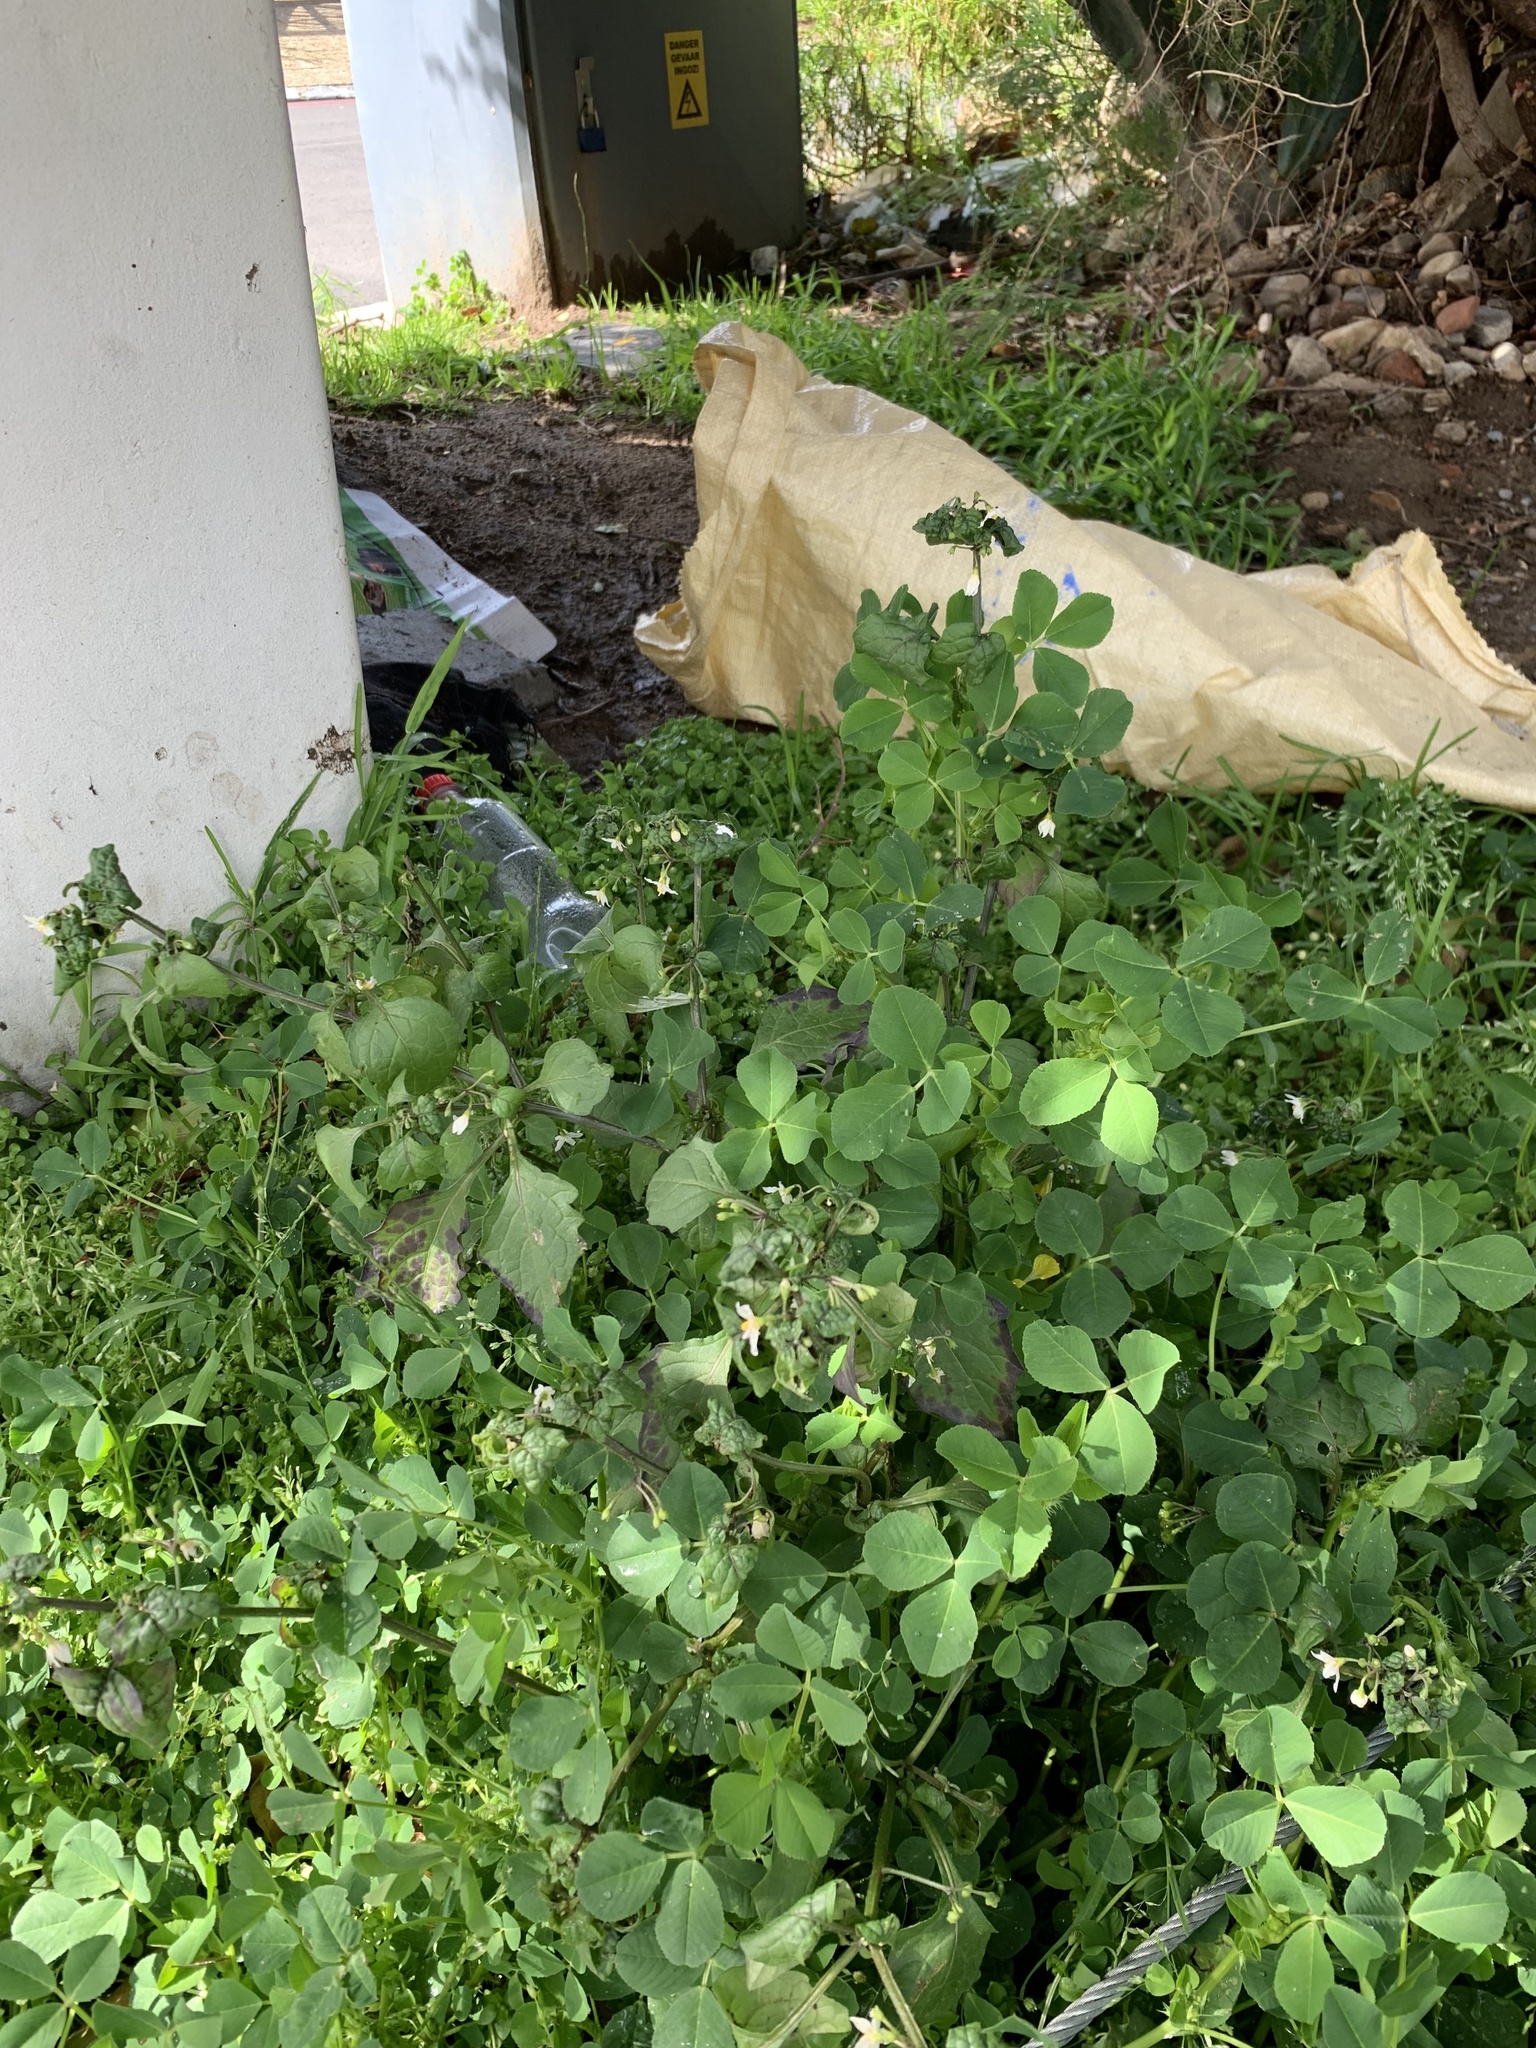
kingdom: Plantae
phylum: Tracheophyta
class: Magnoliopsida
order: Solanales
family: Solanaceae
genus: Solanum
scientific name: Solanum nigrum
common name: Black nightshade
